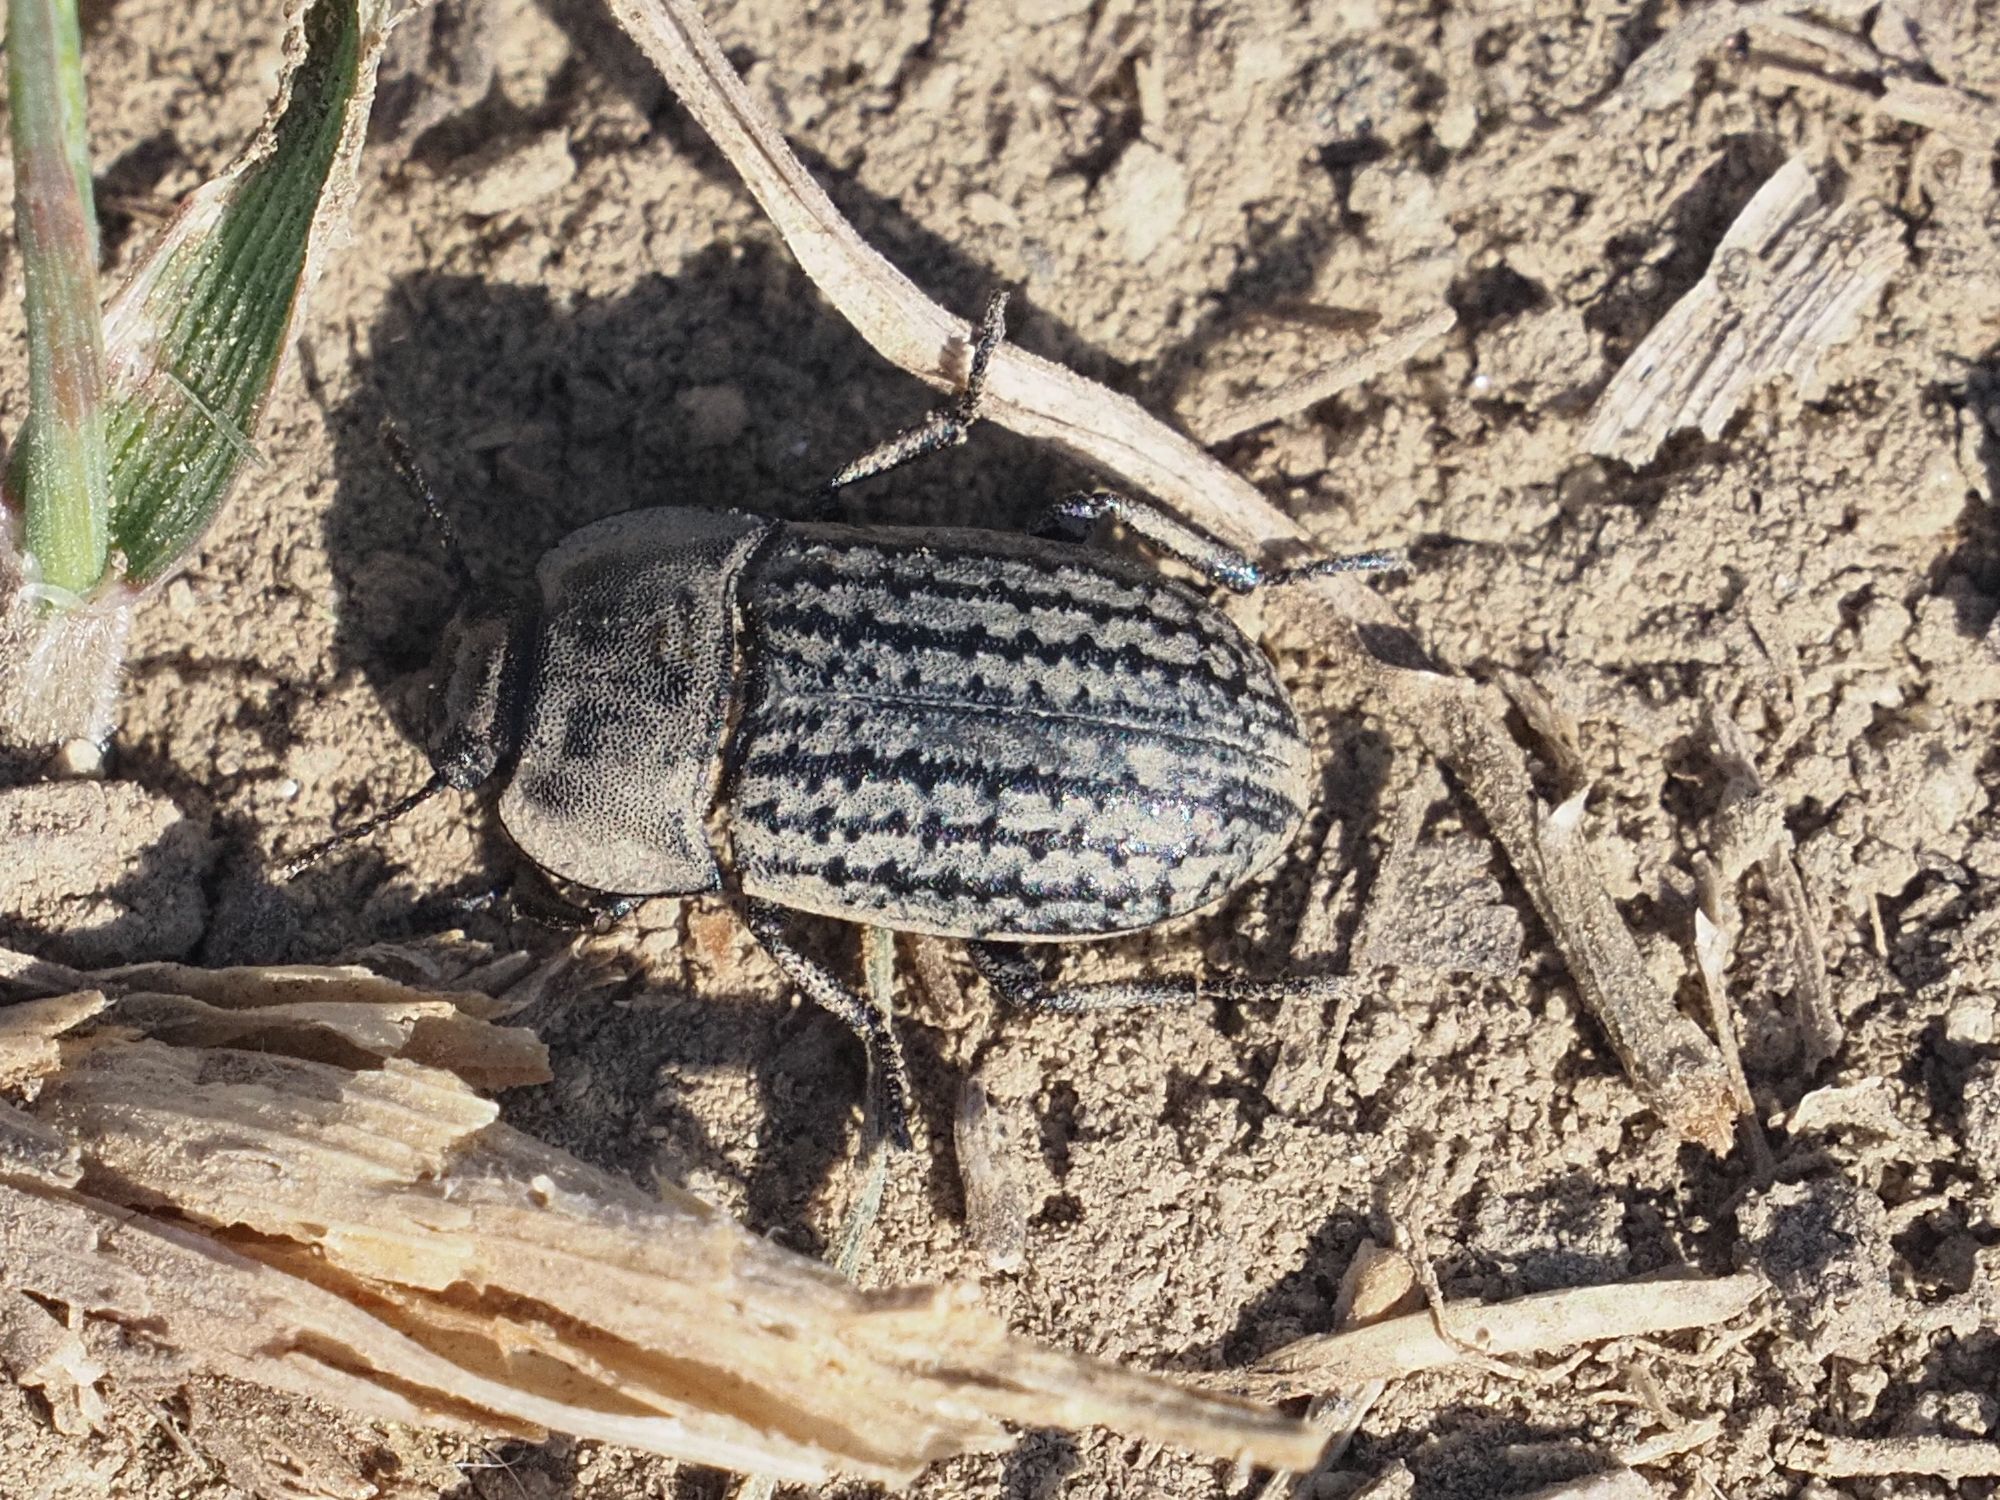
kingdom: Animalia
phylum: Arthropoda
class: Insecta
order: Coleoptera
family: Tenebrionidae
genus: Opatrum
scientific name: Opatrum sabulosum
